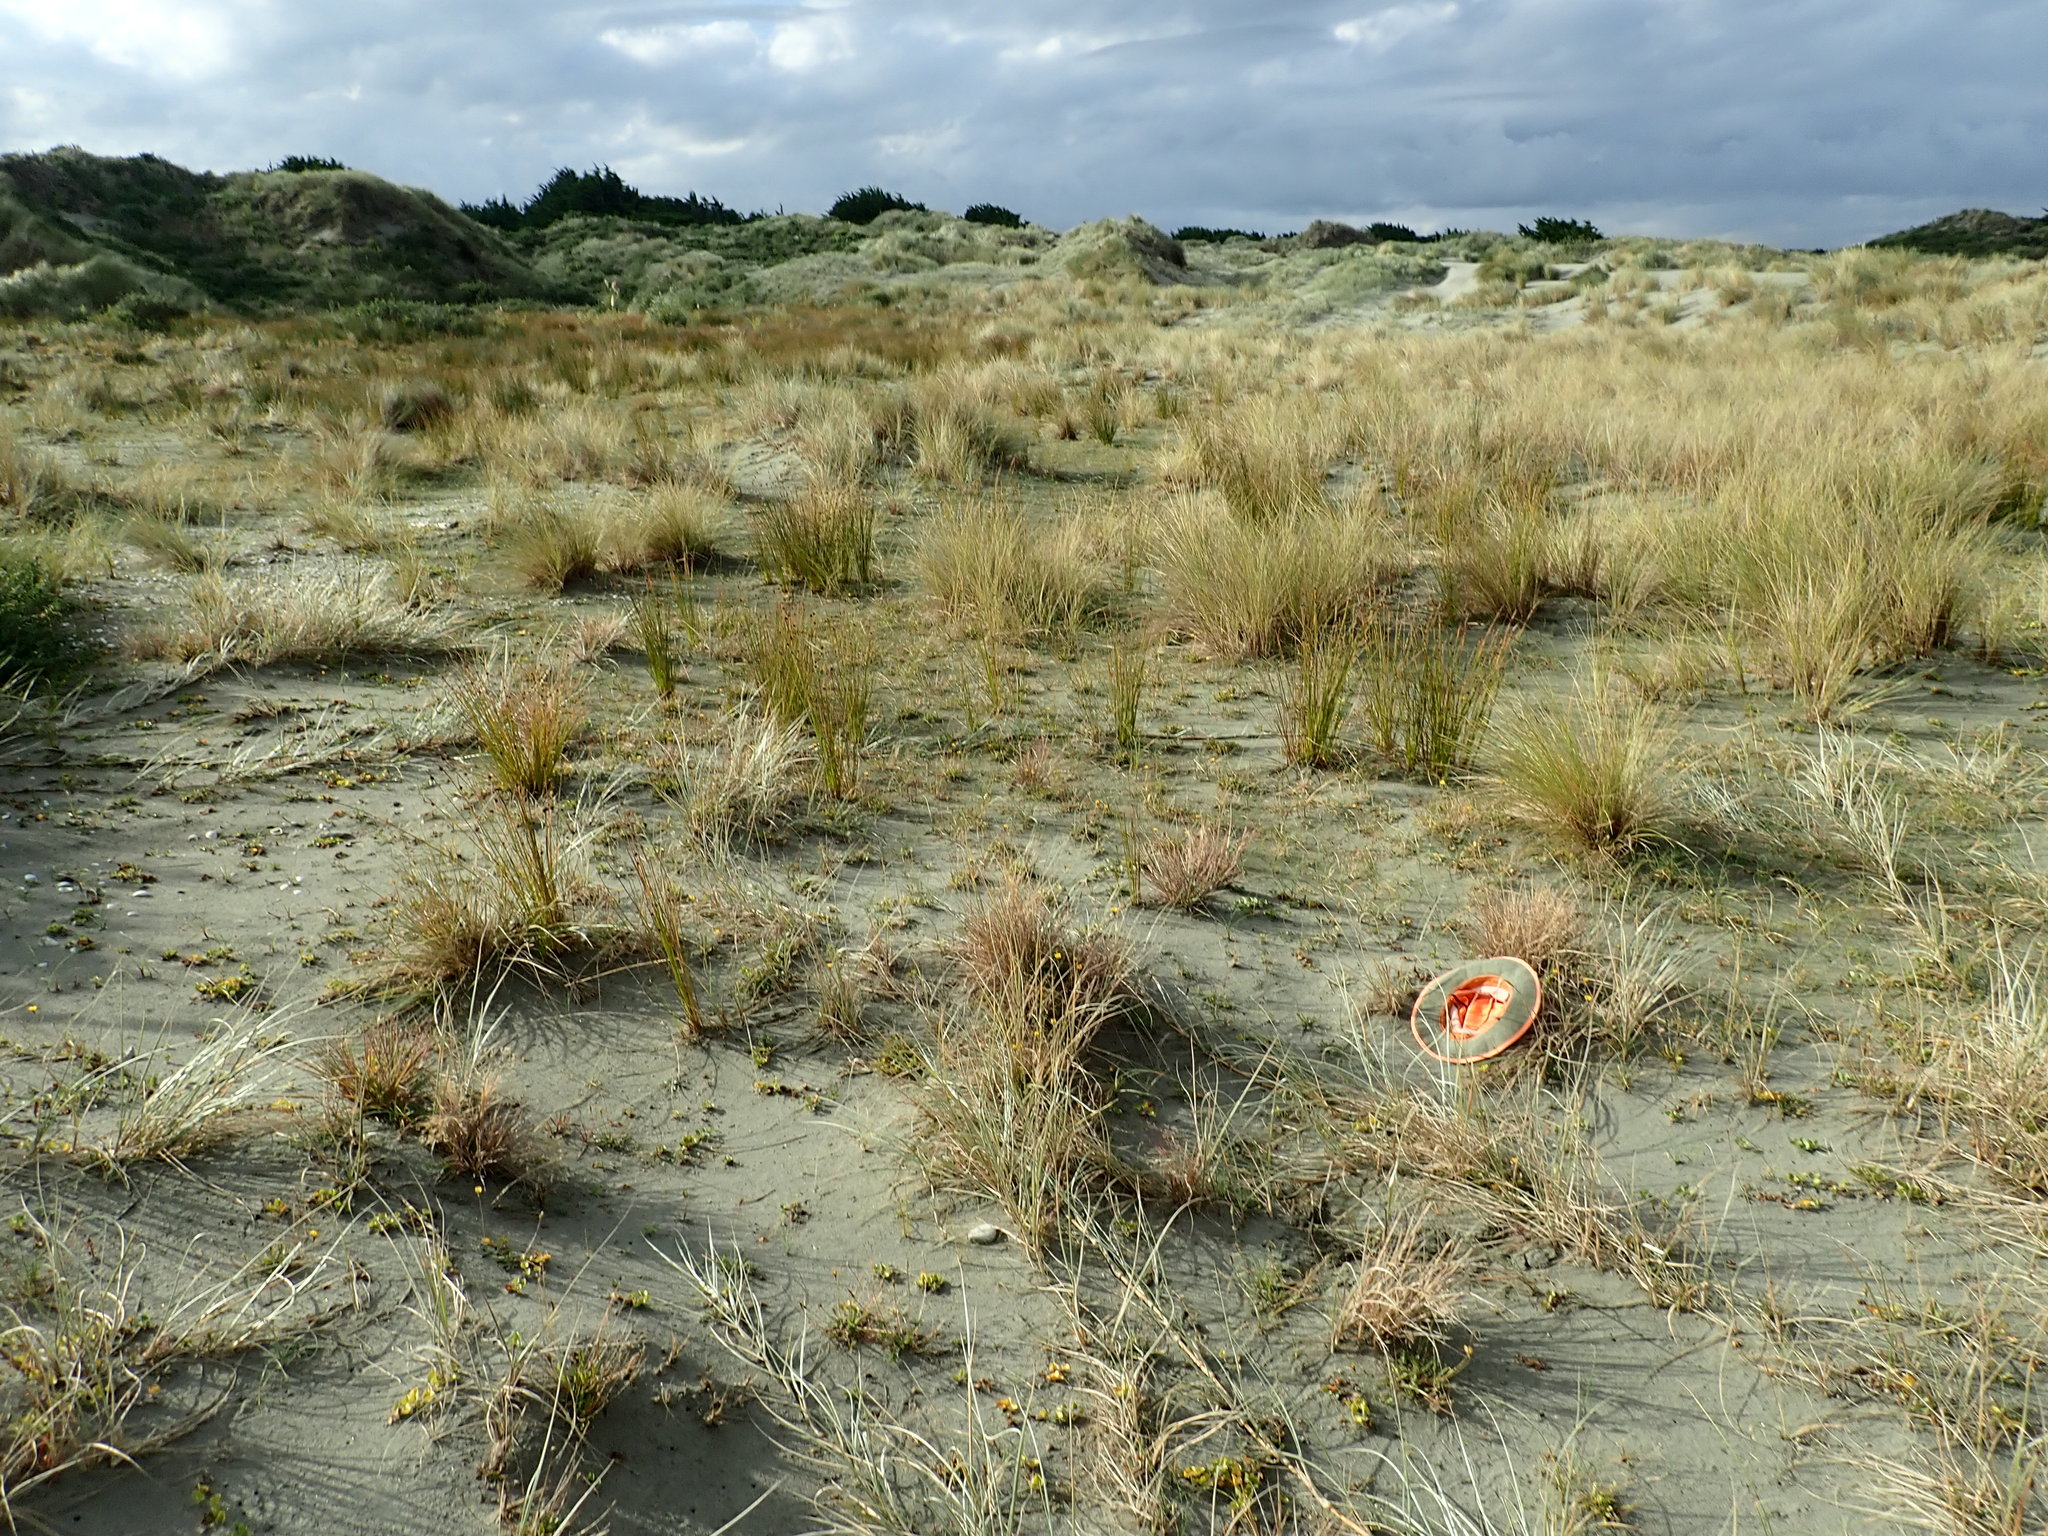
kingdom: Plantae
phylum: Tracheophyta
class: Liliopsida
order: Poales
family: Poaceae
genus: Lachnagrostis
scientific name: Lachnagrostis billardierei
